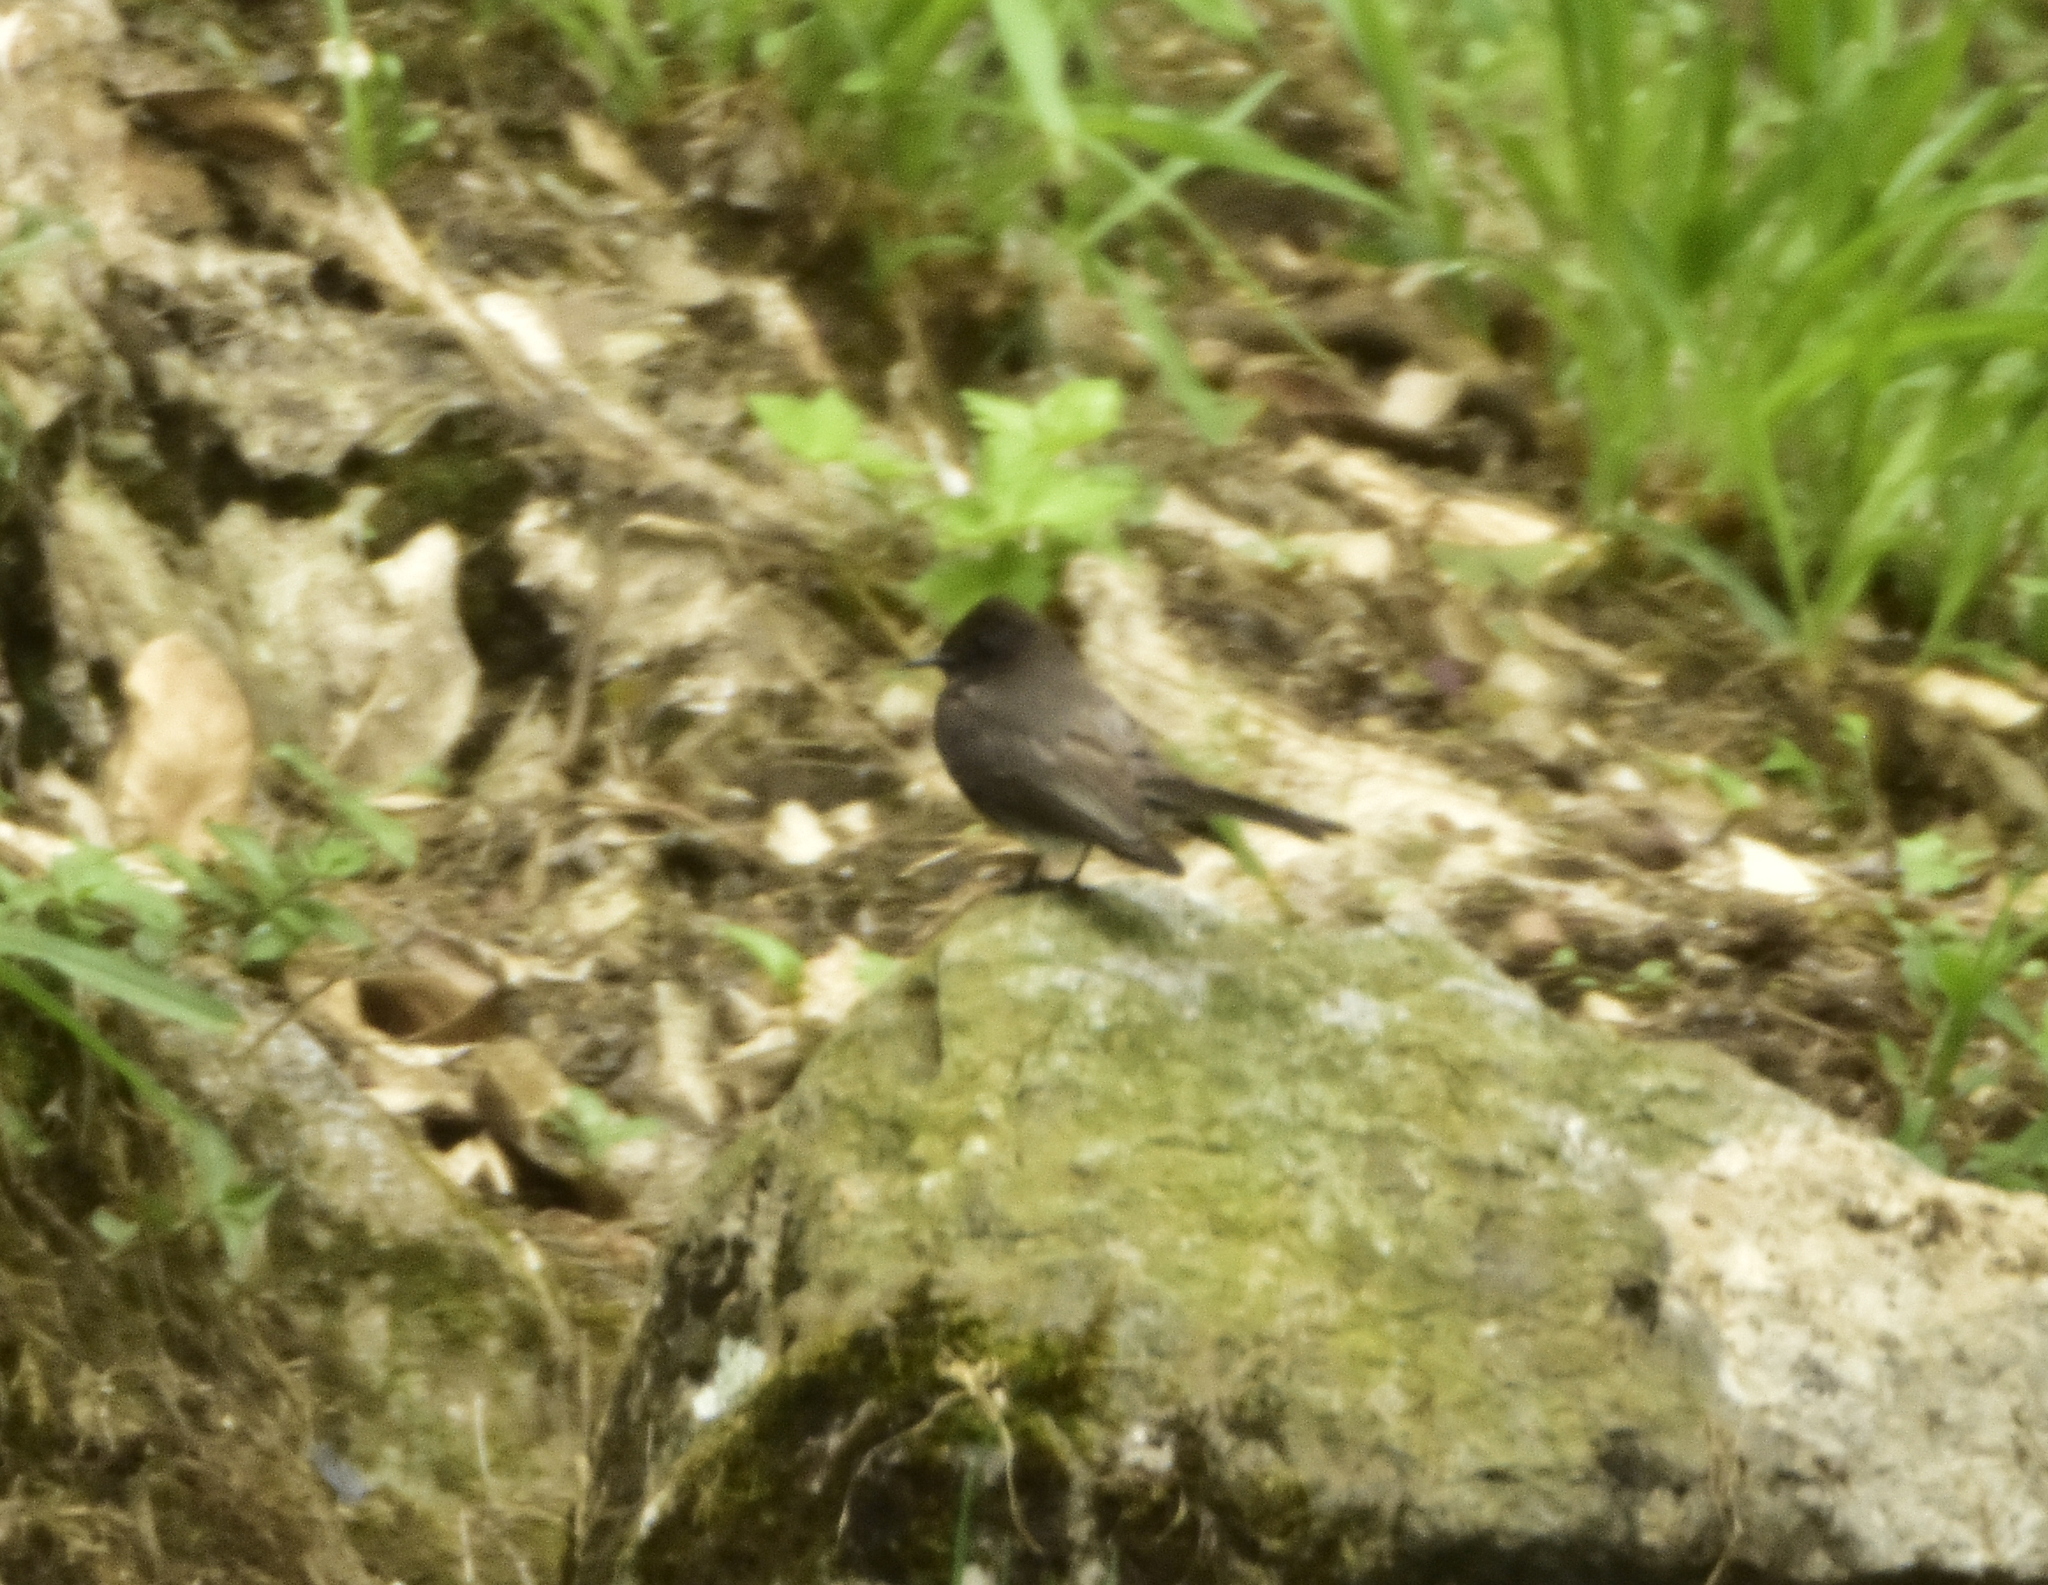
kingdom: Animalia
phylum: Chordata
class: Aves
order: Passeriformes
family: Tyrannidae
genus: Sayornis
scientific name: Sayornis nigricans
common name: Black phoebe
